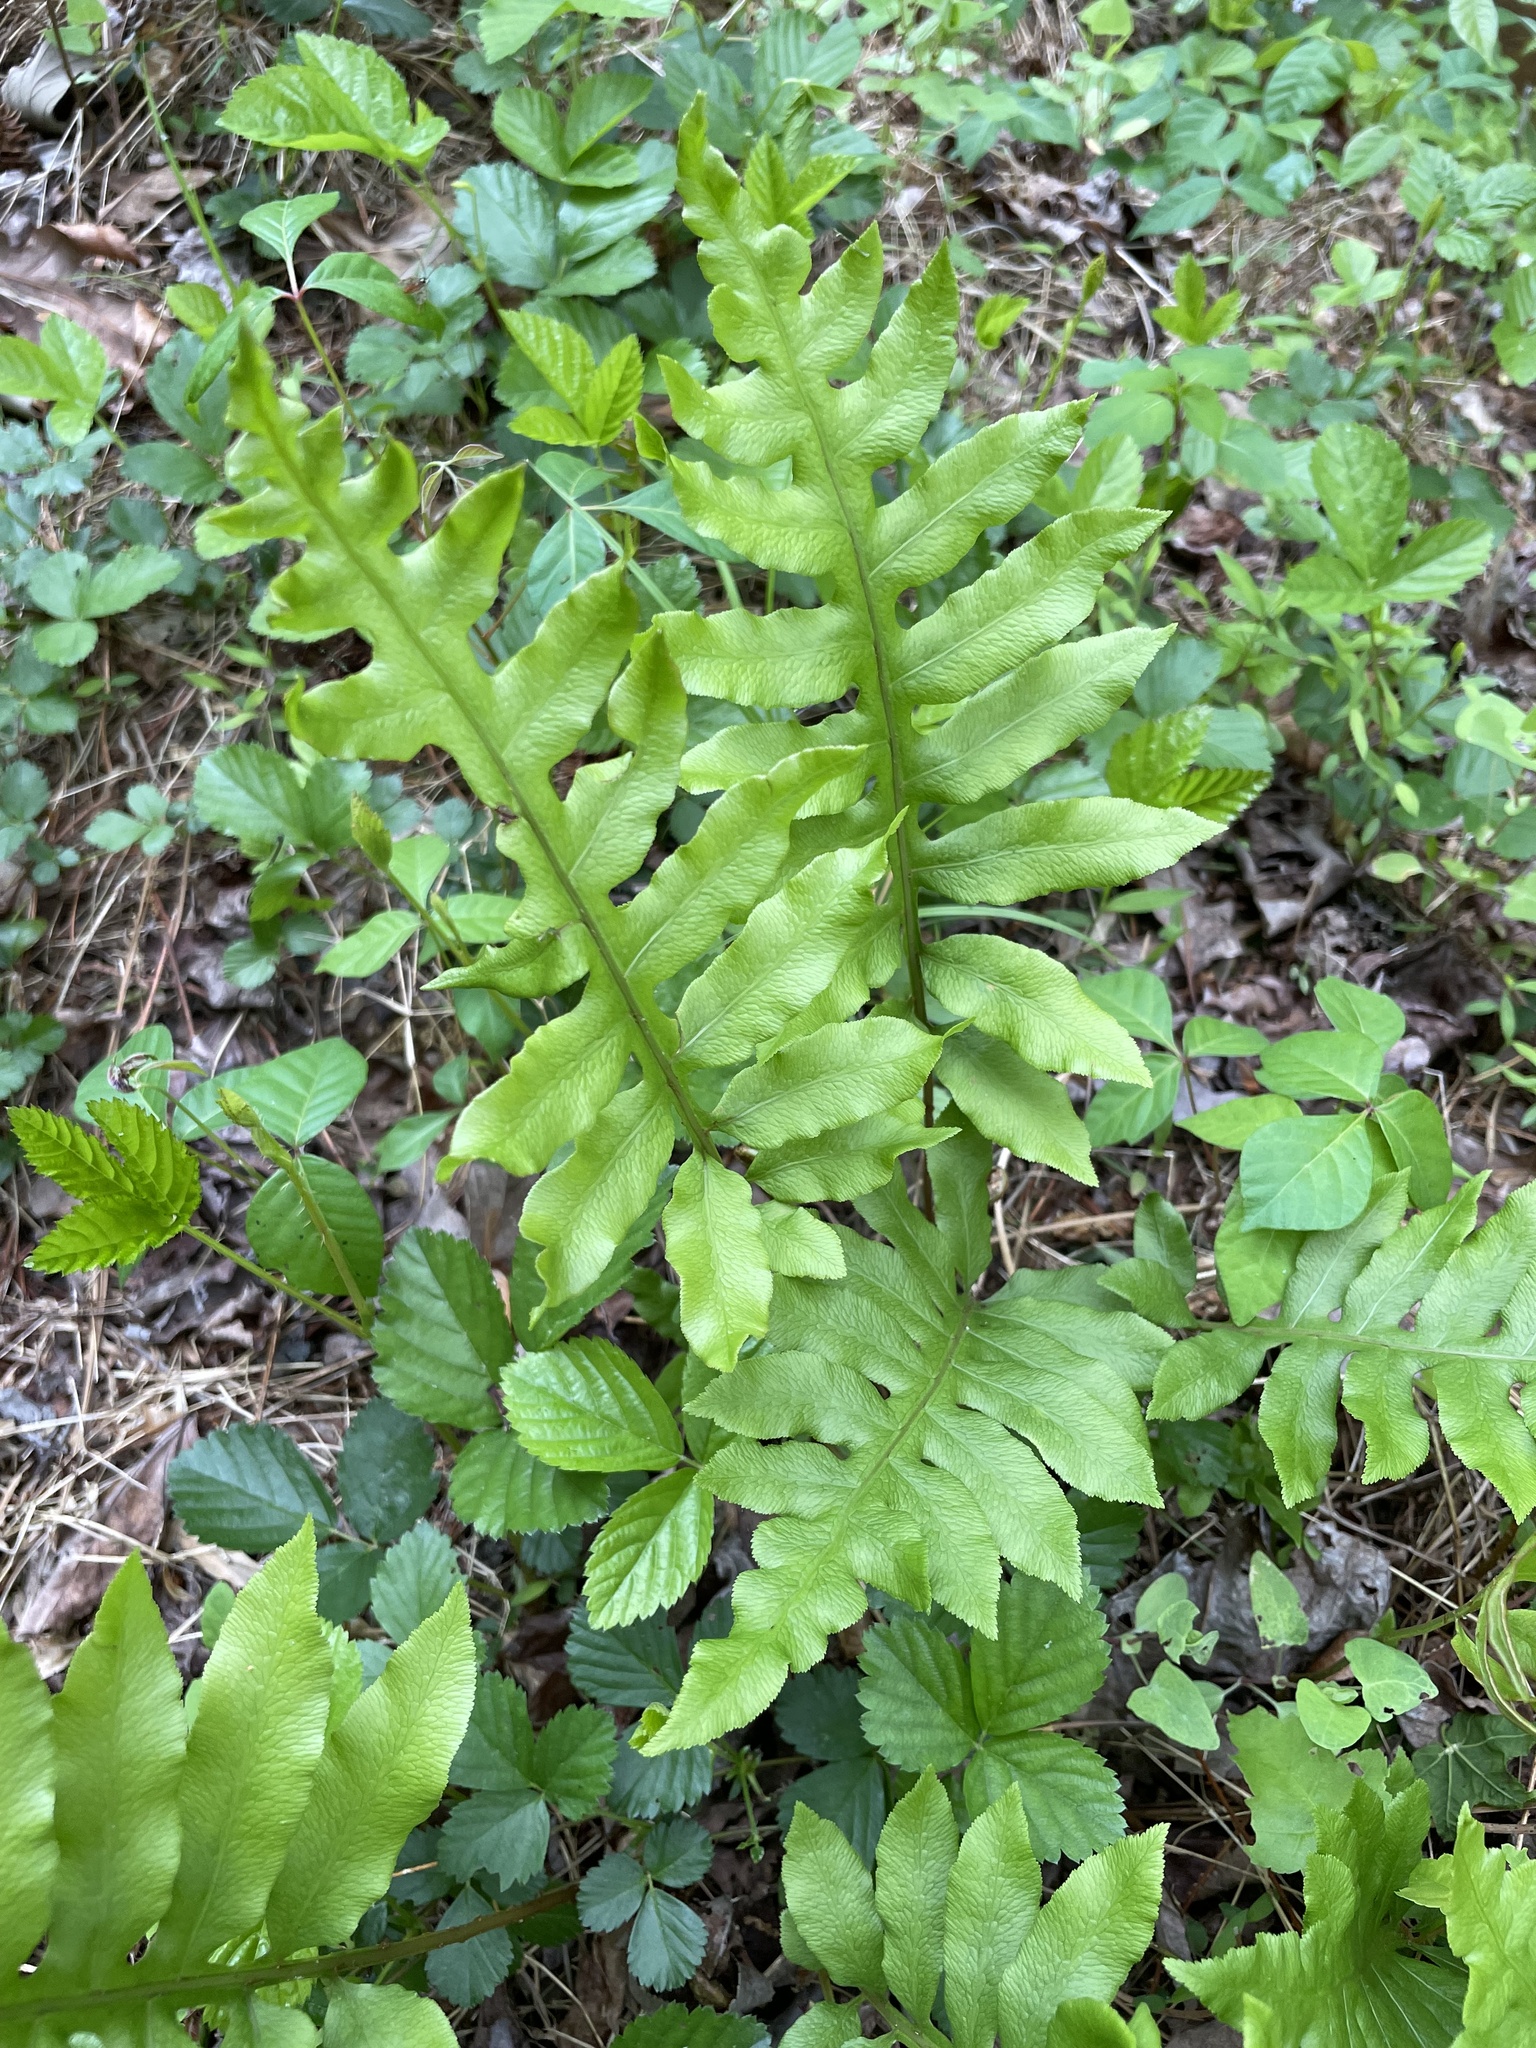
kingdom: Plantae
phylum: Tracheophyta
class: Polypodiopsida
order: Polypodiales
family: Blechnaceae
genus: Lorinseria
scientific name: Lorinseria areolata
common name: Dwarf chain fern
